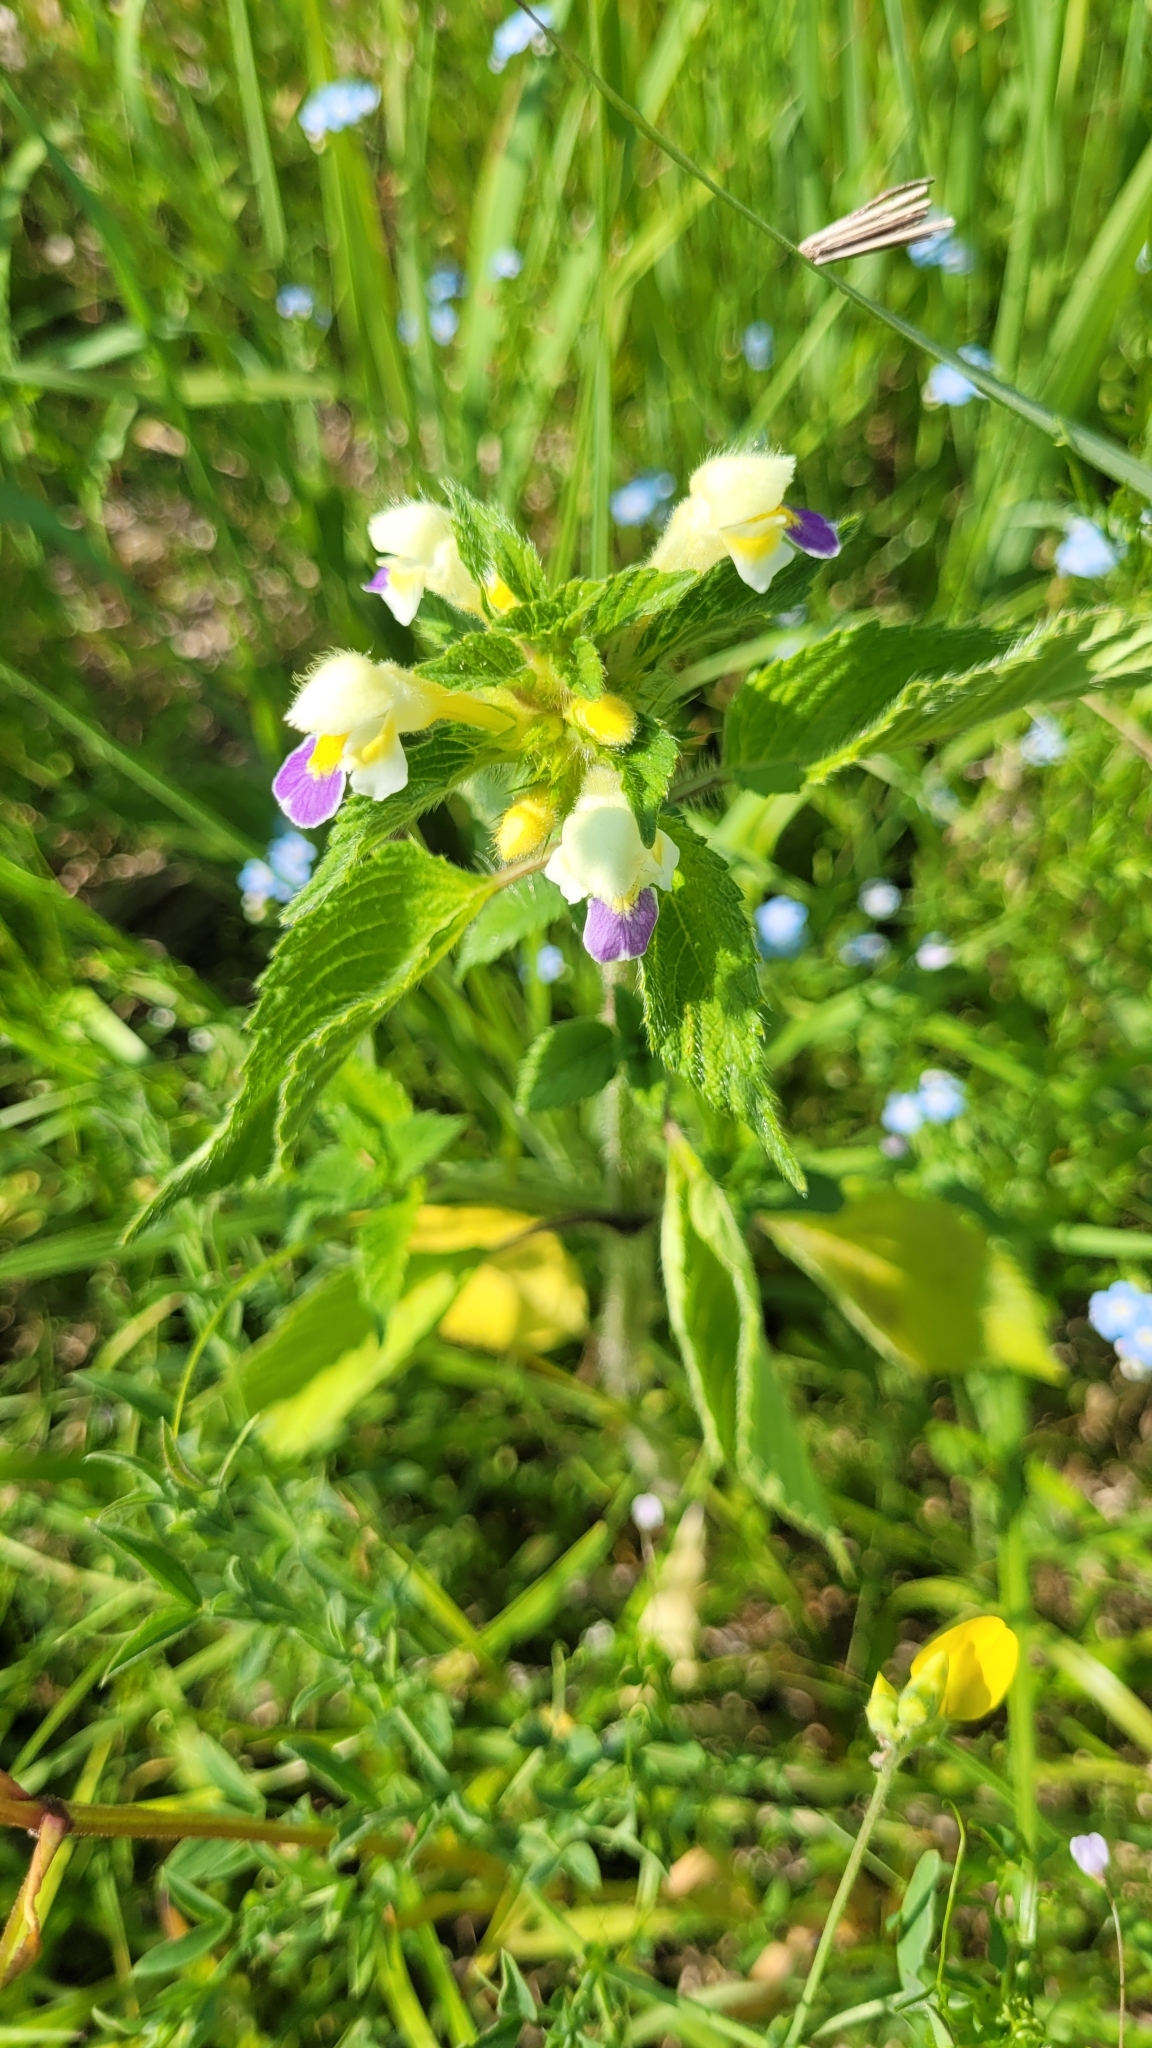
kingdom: Plantae
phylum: Tracheophyta
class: Magnoliopsida
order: Lamiales
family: Lamiaceae
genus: Galeopsis
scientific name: Galeopsis speciosa
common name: Large-flowered hemp-nettle
